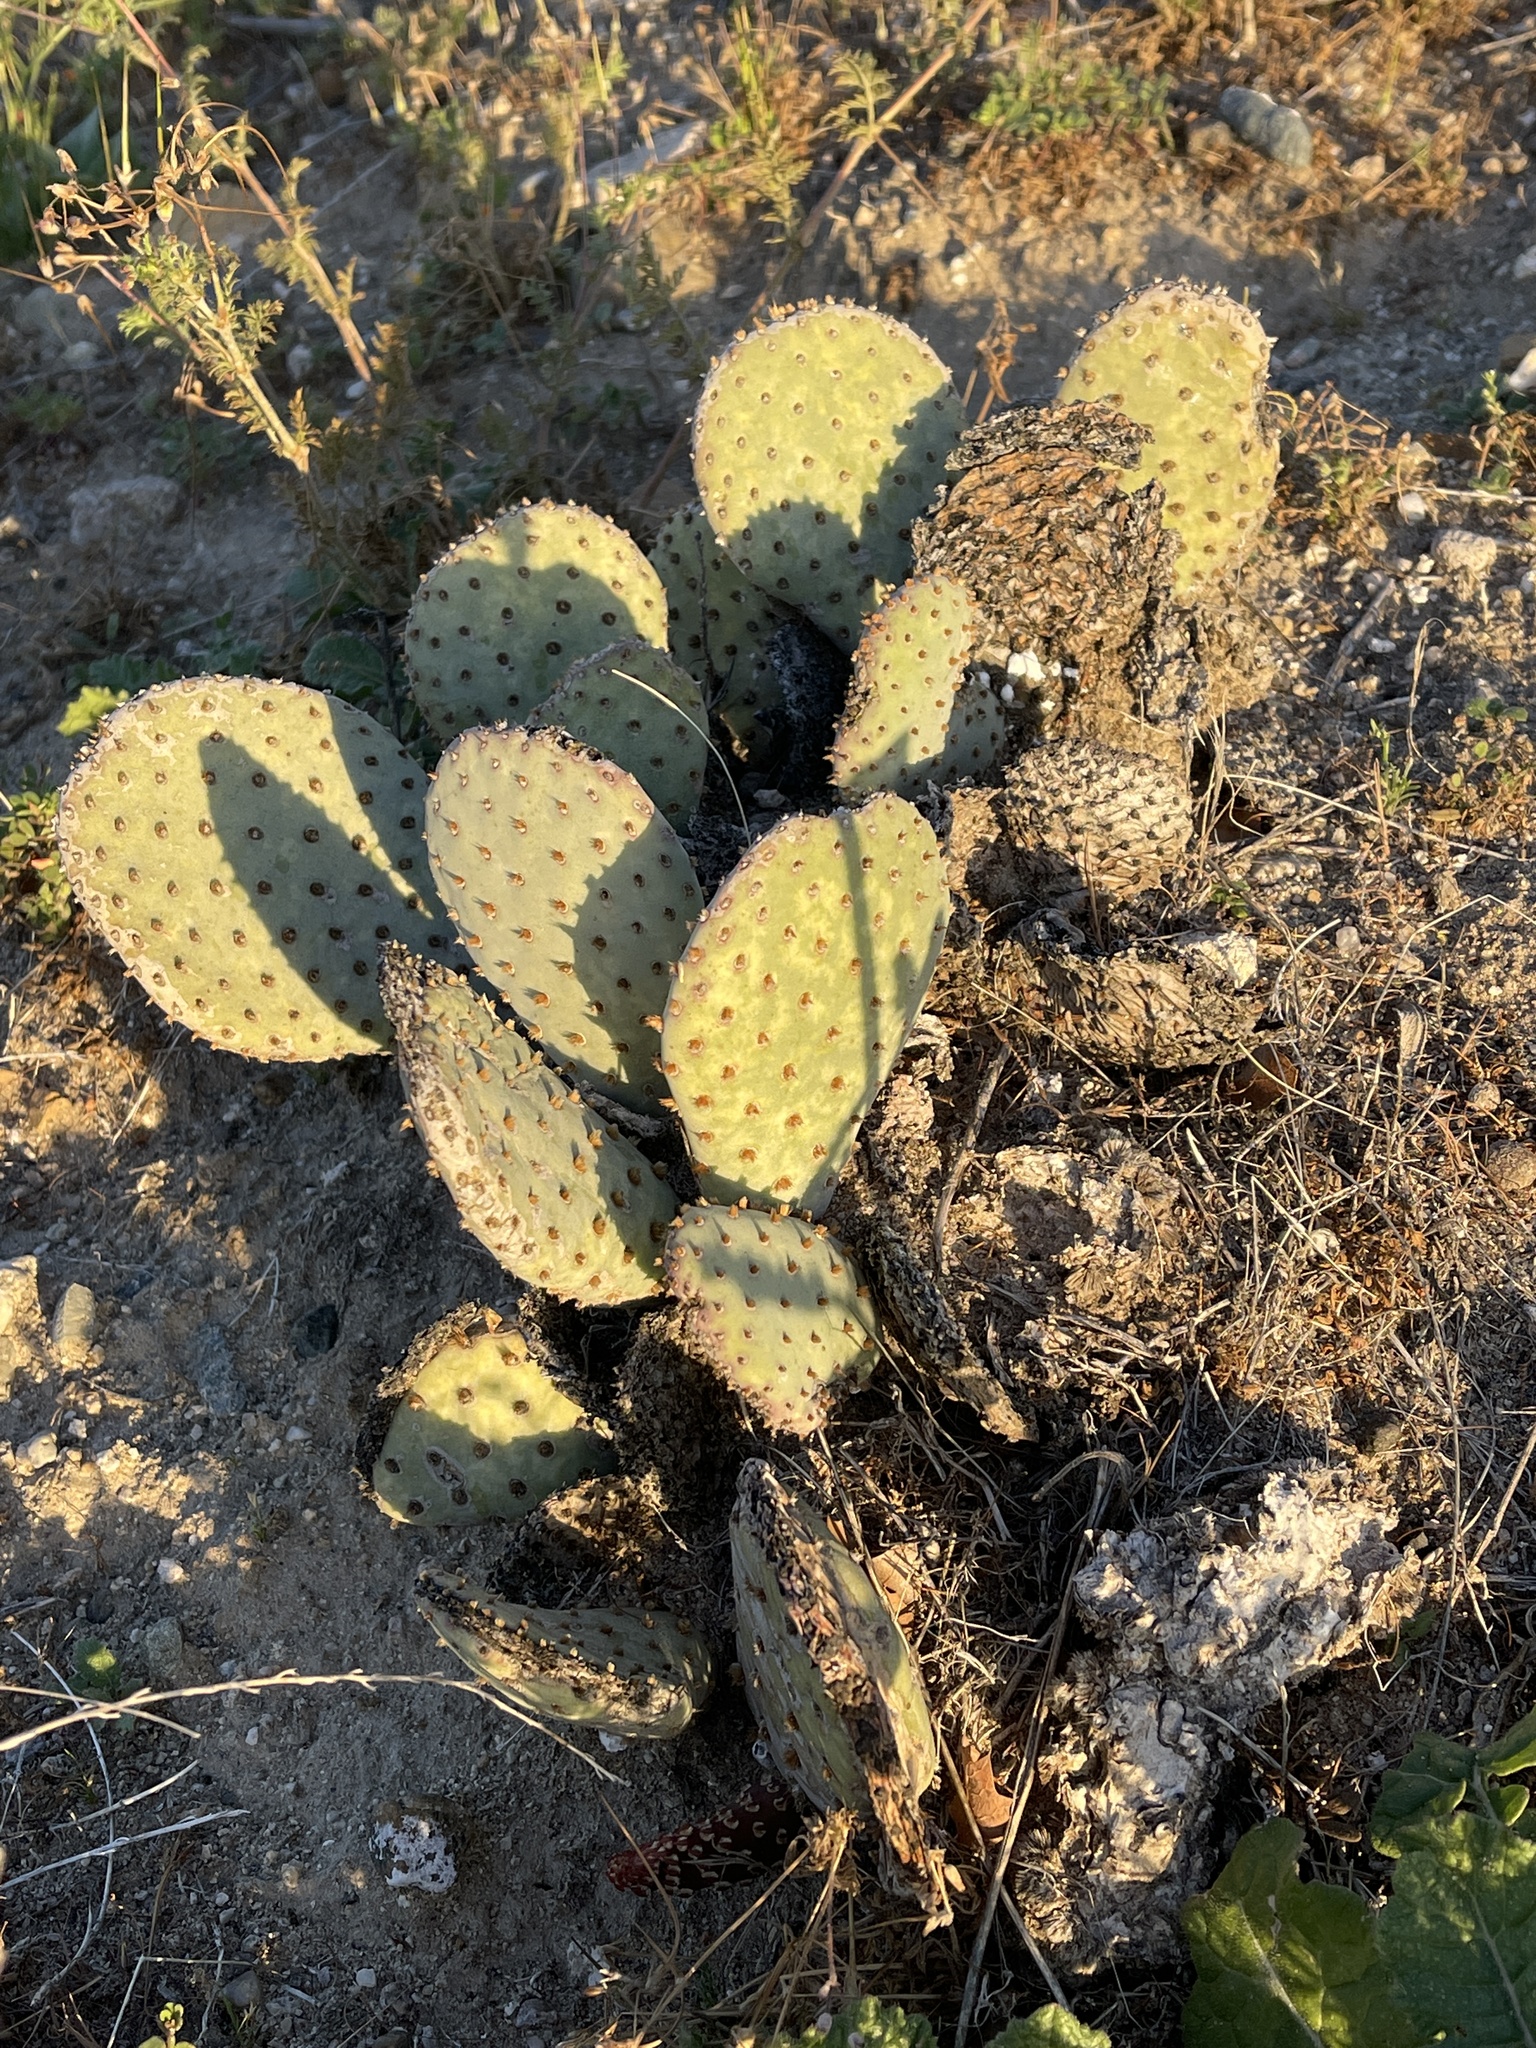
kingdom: Plantae
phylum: Tracheophyta
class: Magnoliopsida
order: Caryophyllales
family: Cactaceae
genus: Opuntia
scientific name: Opuntia basilaris
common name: Beavertail prickly-pear
